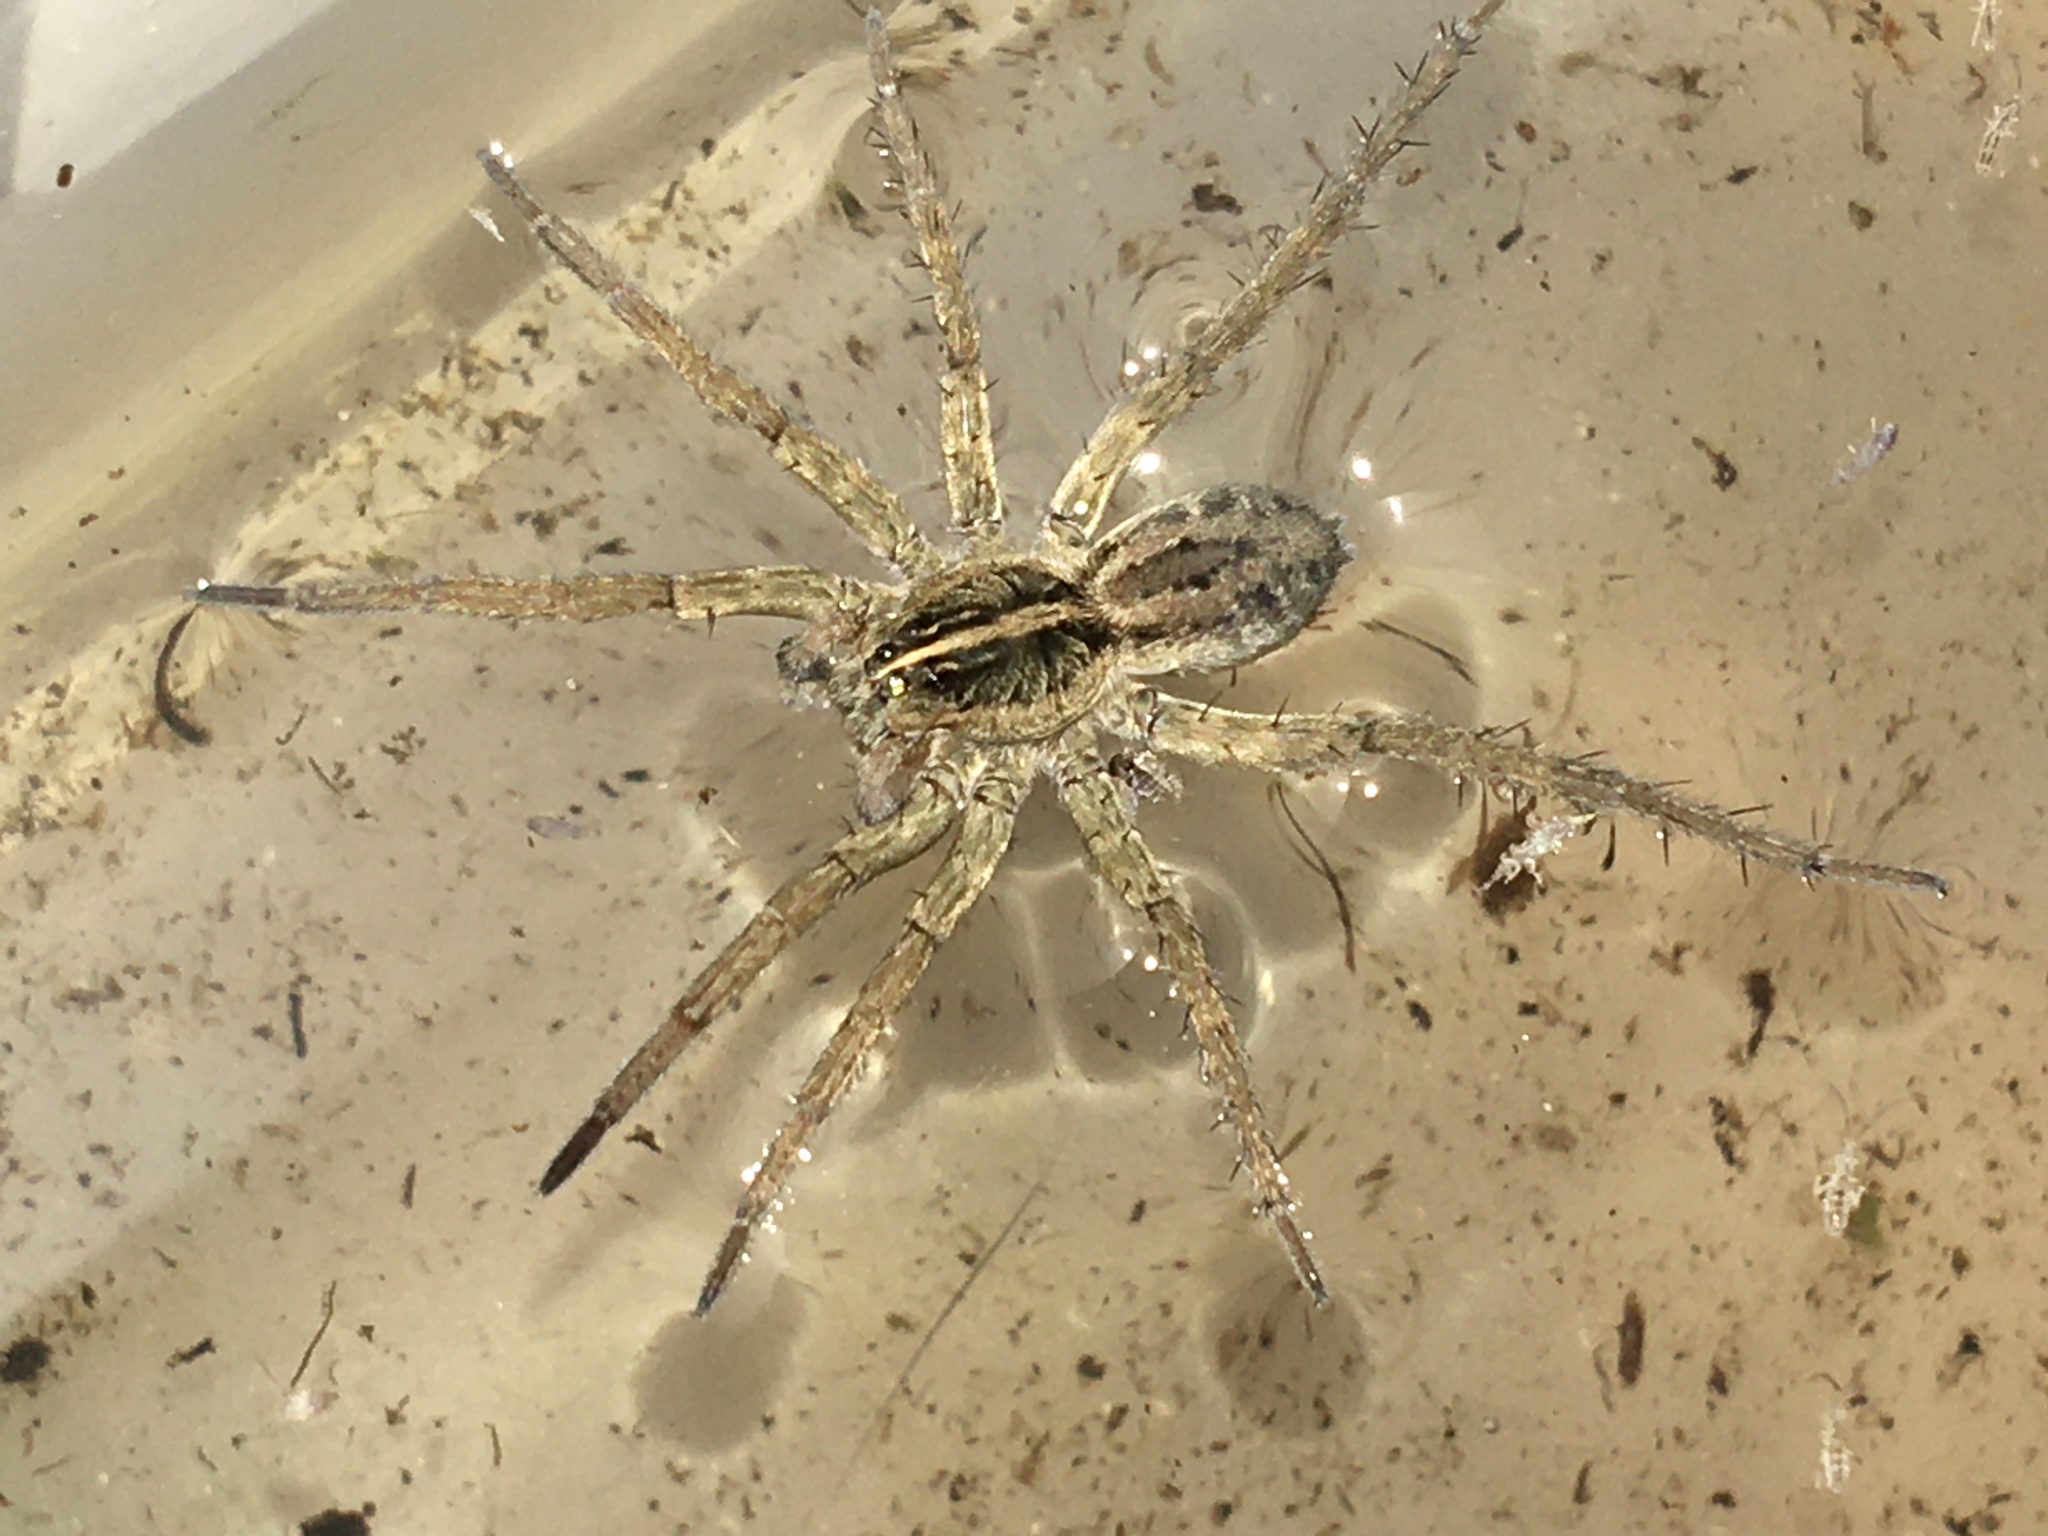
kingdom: Animalia
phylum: Arthropoda
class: Arachnida
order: Araneae
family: Lycosidae
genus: Tigrosa
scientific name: Tigrosa helluo
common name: Wetland giant wolf spider
